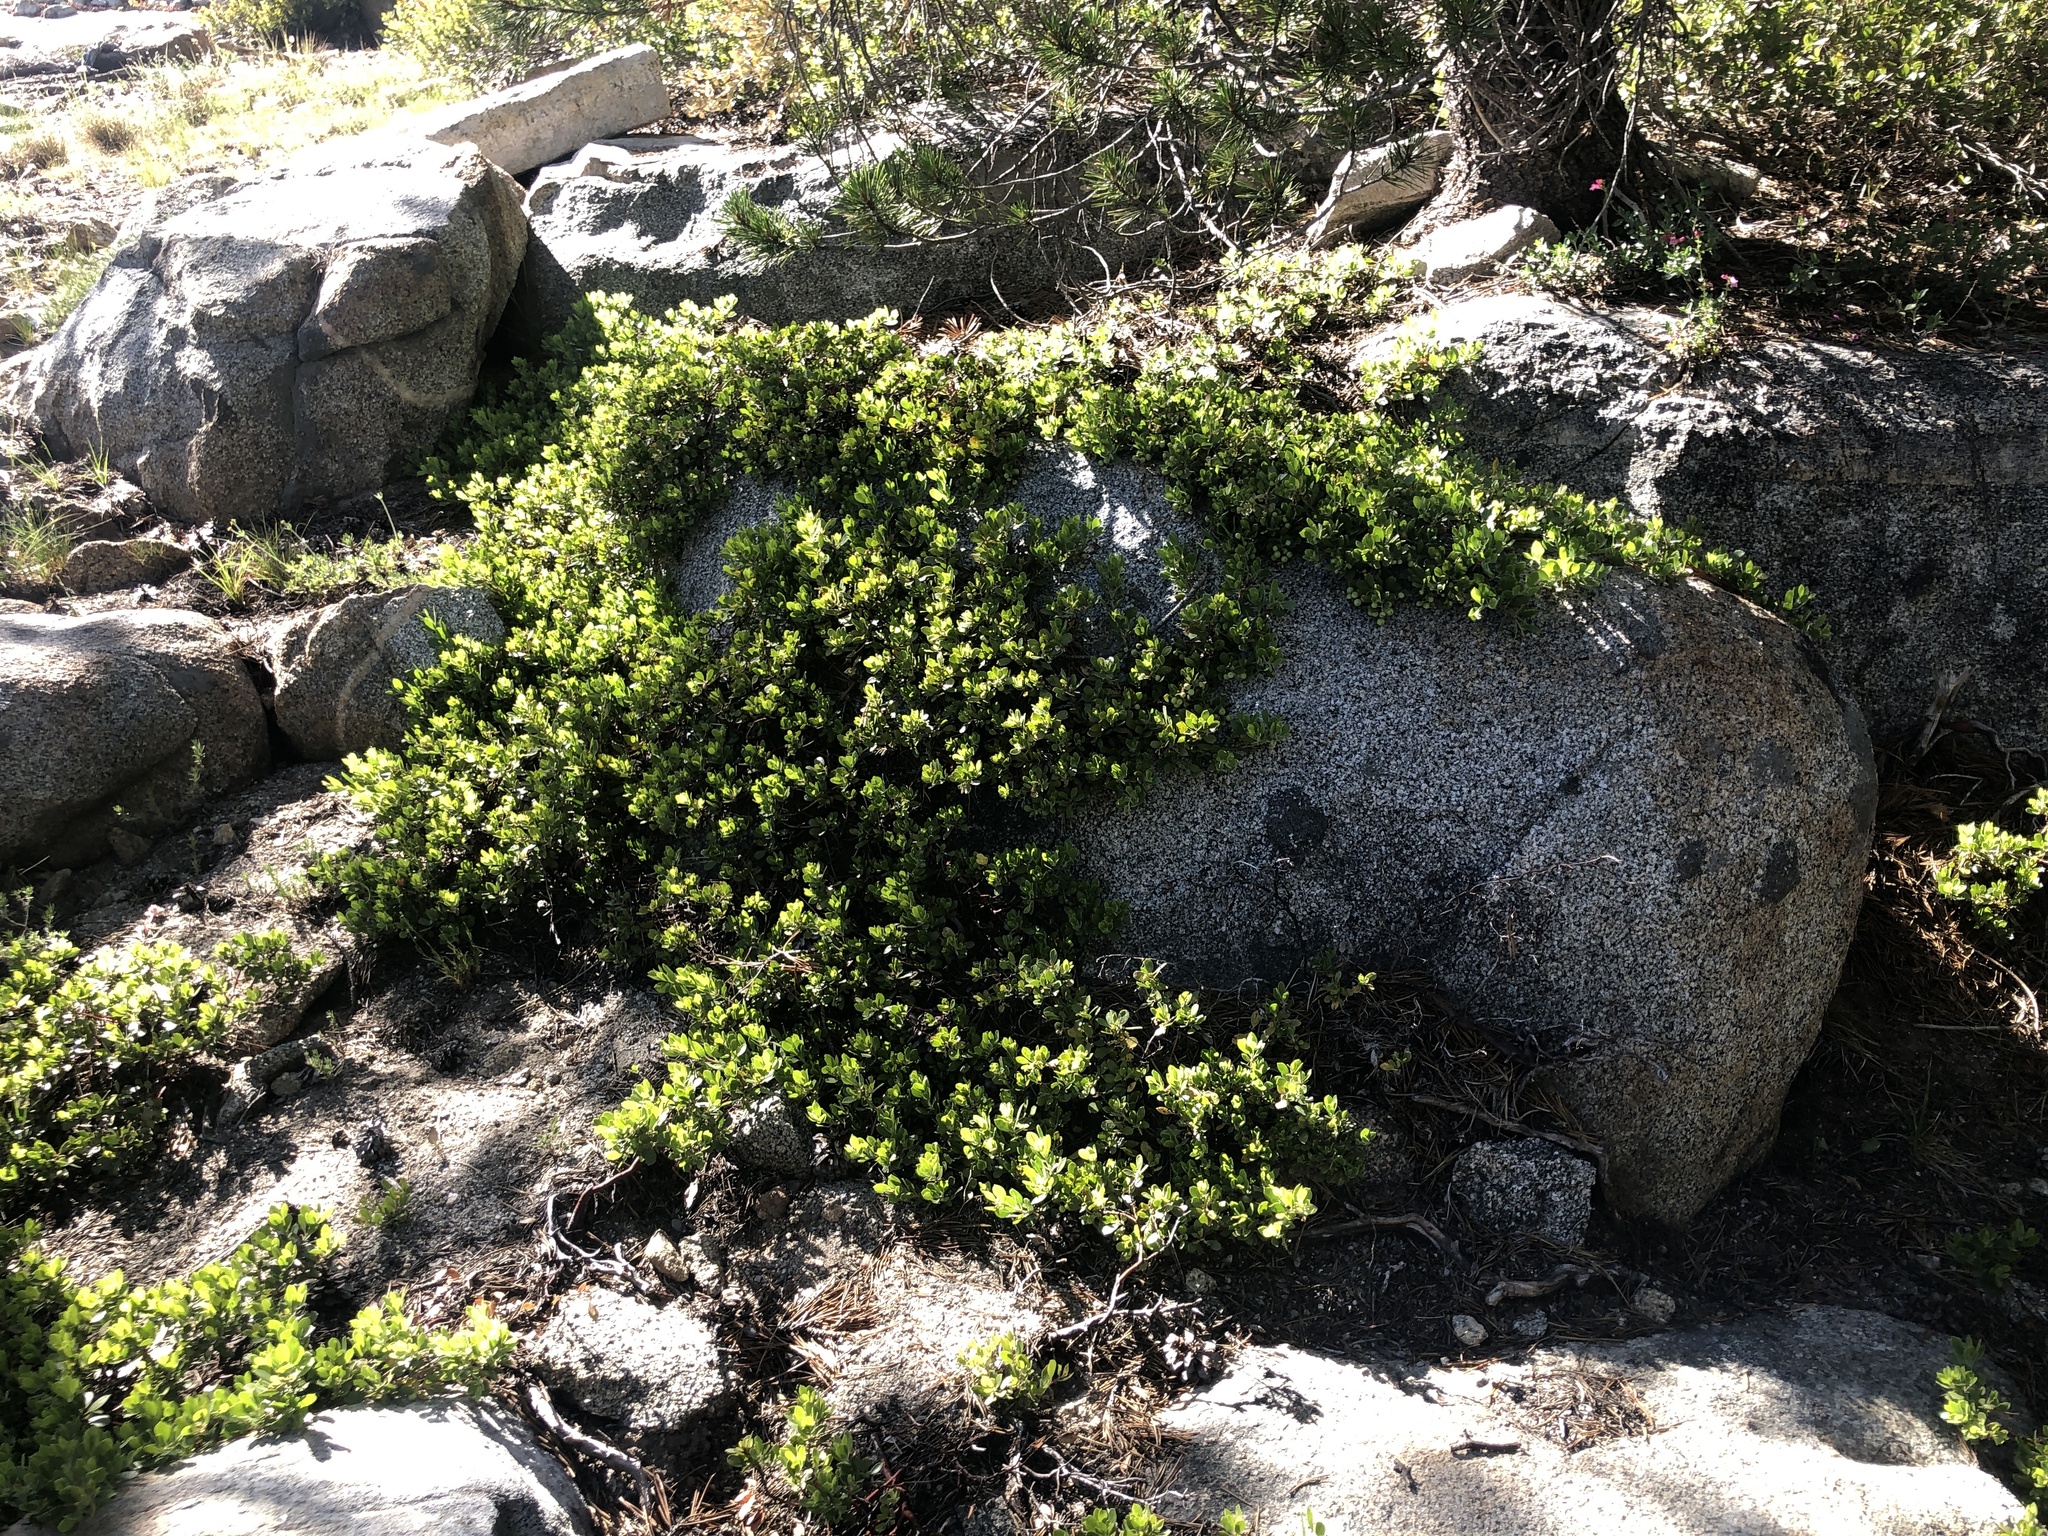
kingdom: Plantae
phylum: Tracheophyta
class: Magnoliopsida
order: Ericales
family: Ericaceae
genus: Arctostaphylos
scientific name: Arctostaphylos nevadensis
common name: Pinemat manzanita
